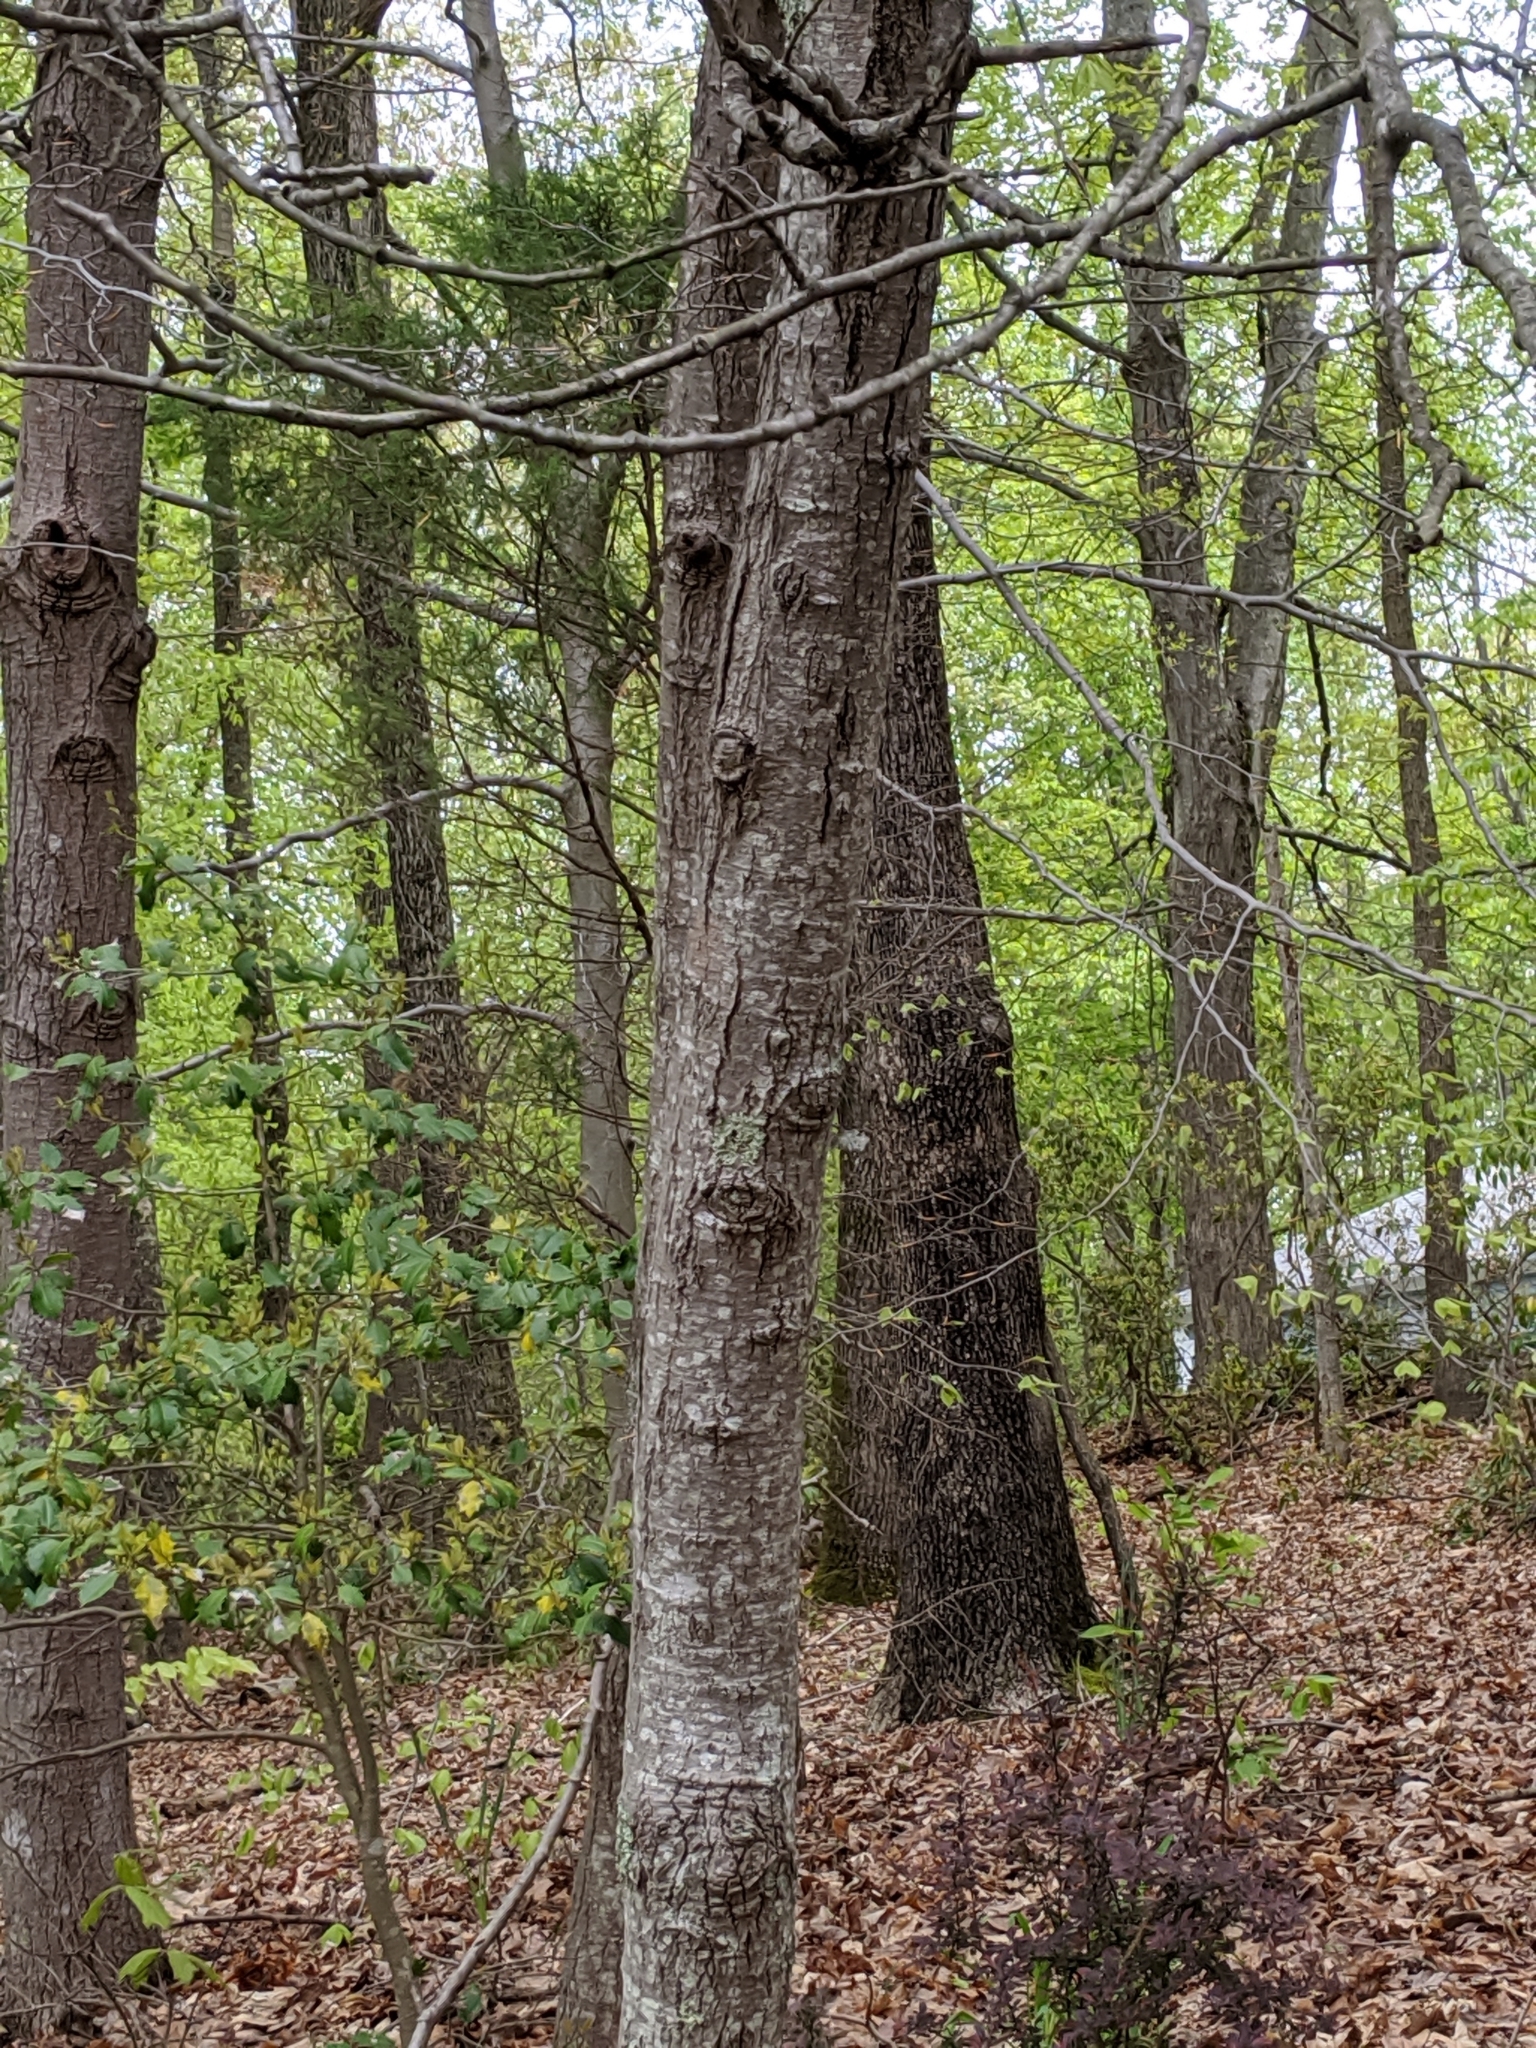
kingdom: Plantae
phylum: Tracheophyta
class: Magnoliopsida
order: Malpighiales
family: Salicaceae
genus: Populus
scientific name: Populus grandidentata
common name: Bigtooth aspen
